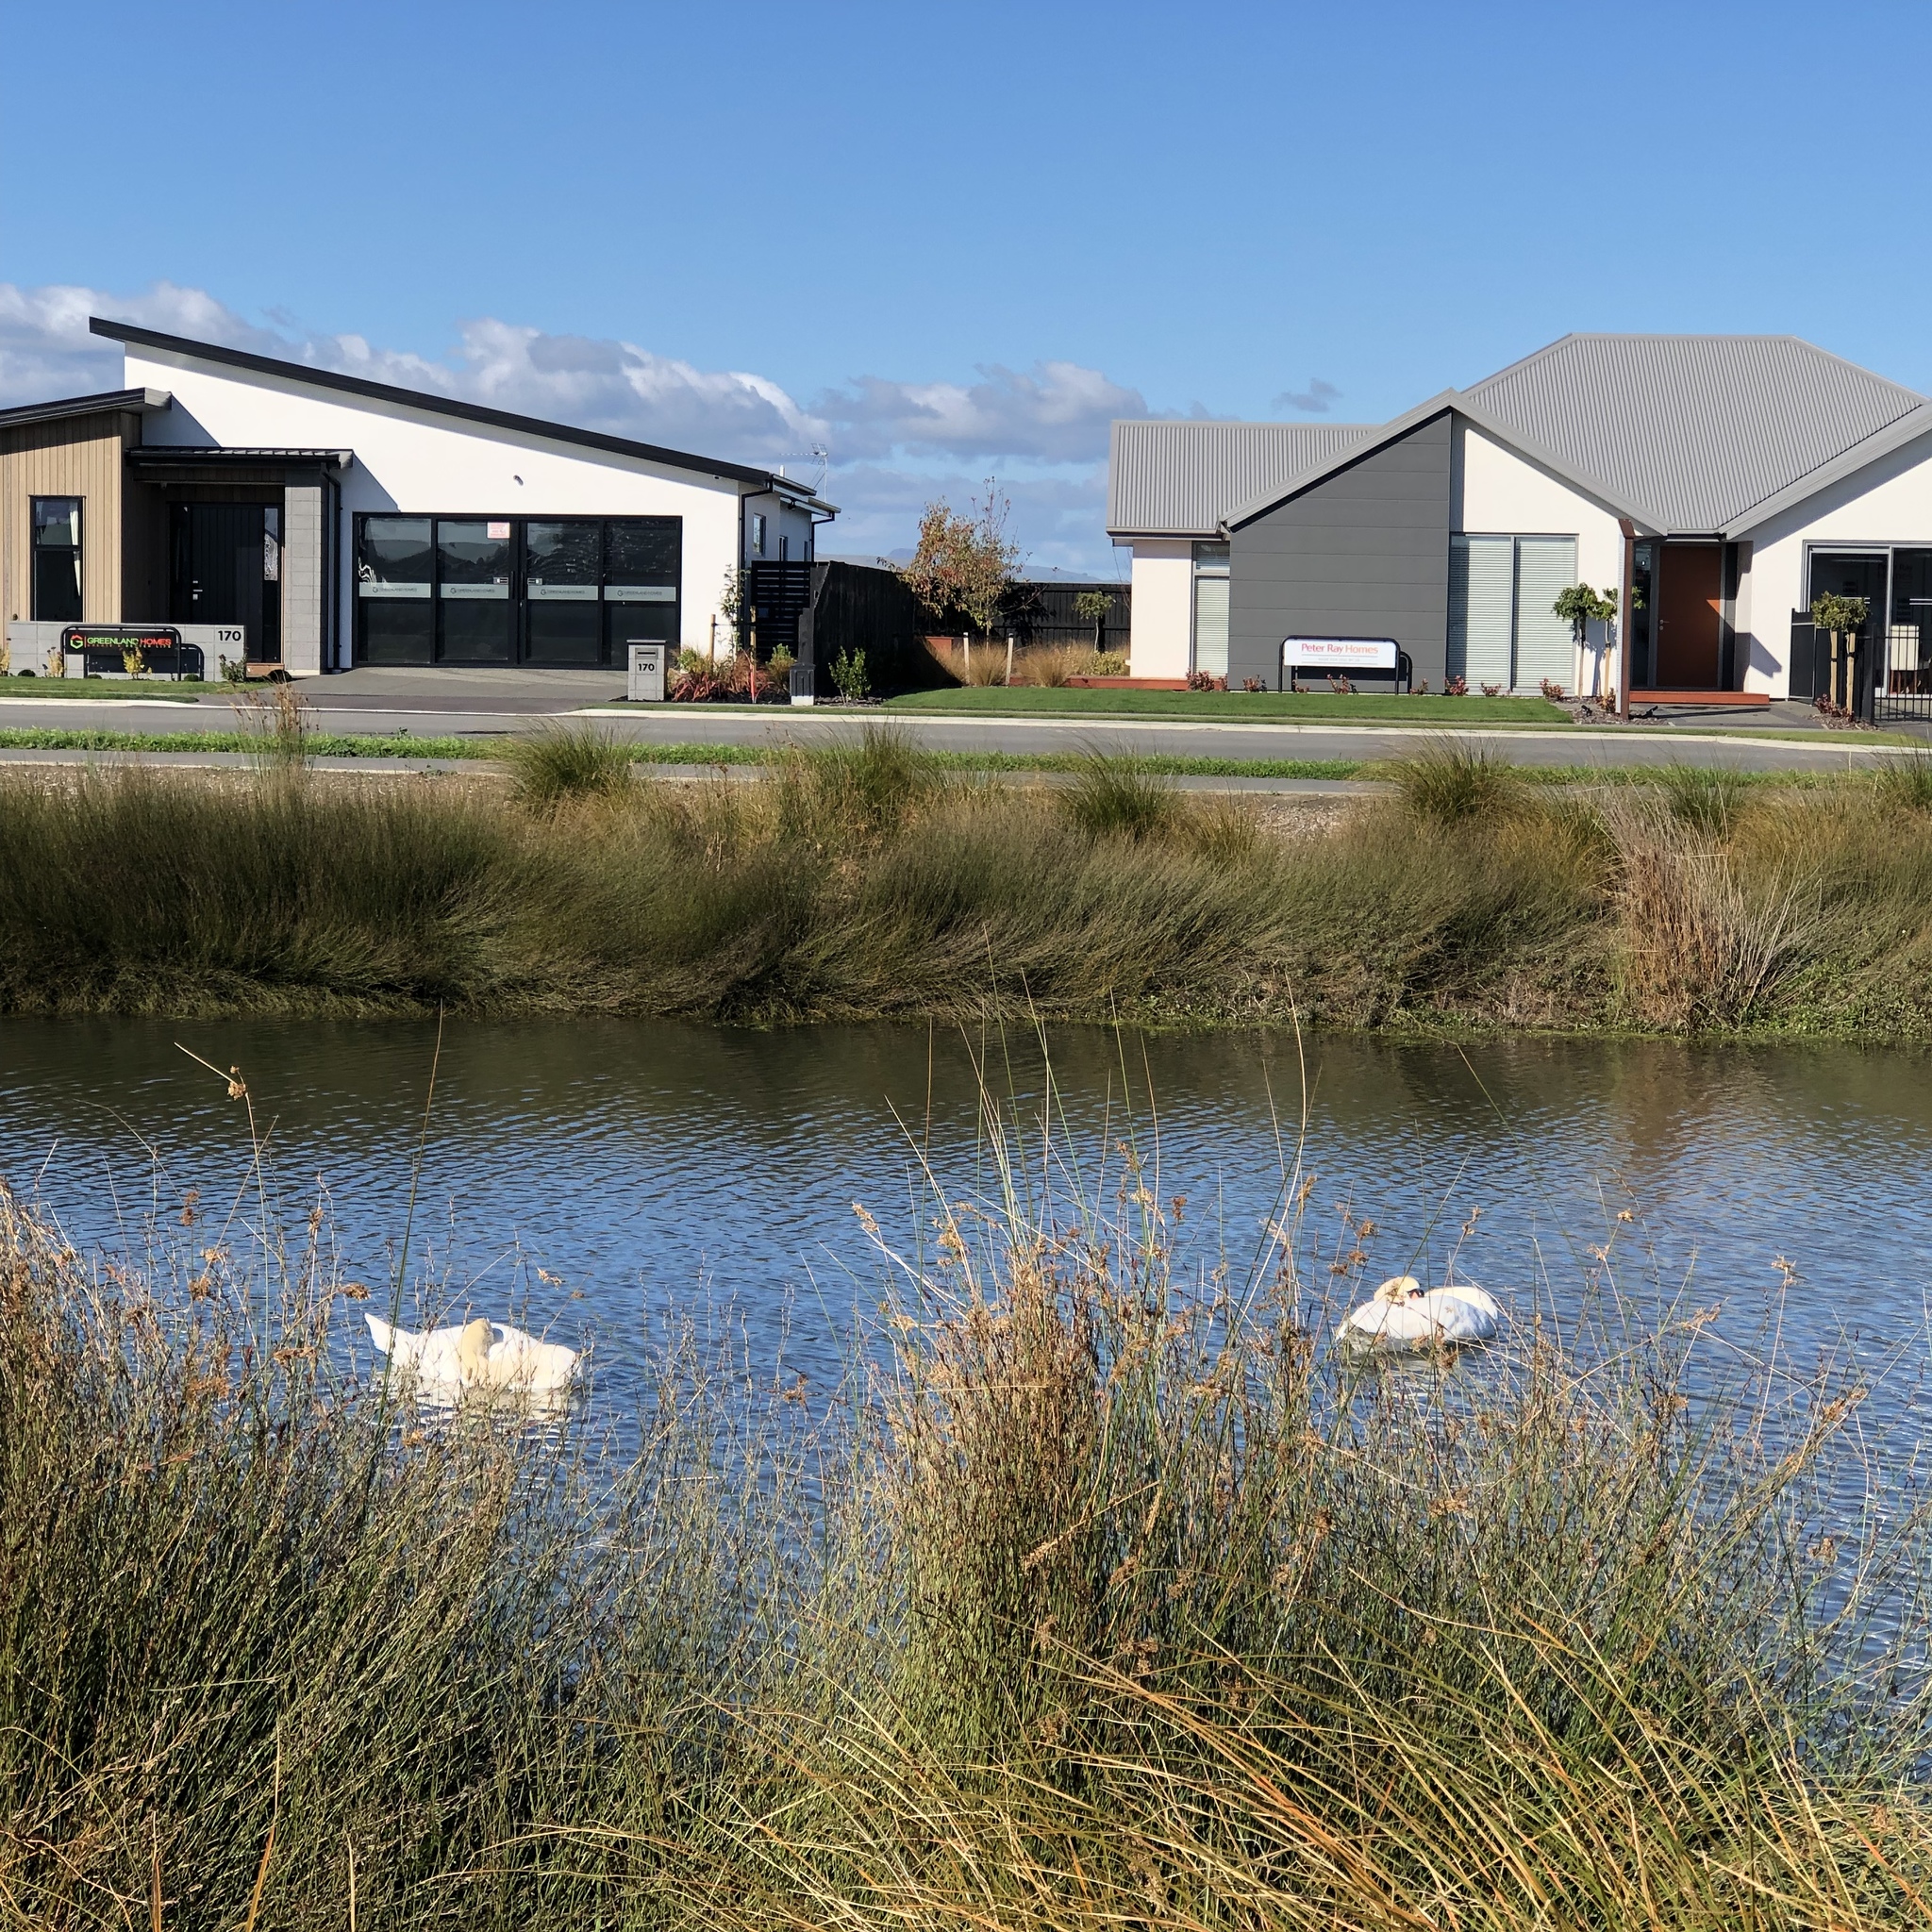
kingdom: Animalia
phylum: Chordata
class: Aves
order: Anseriformes
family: Anatidae
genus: Cygnus
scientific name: Cygnus olor
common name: Mute swan
